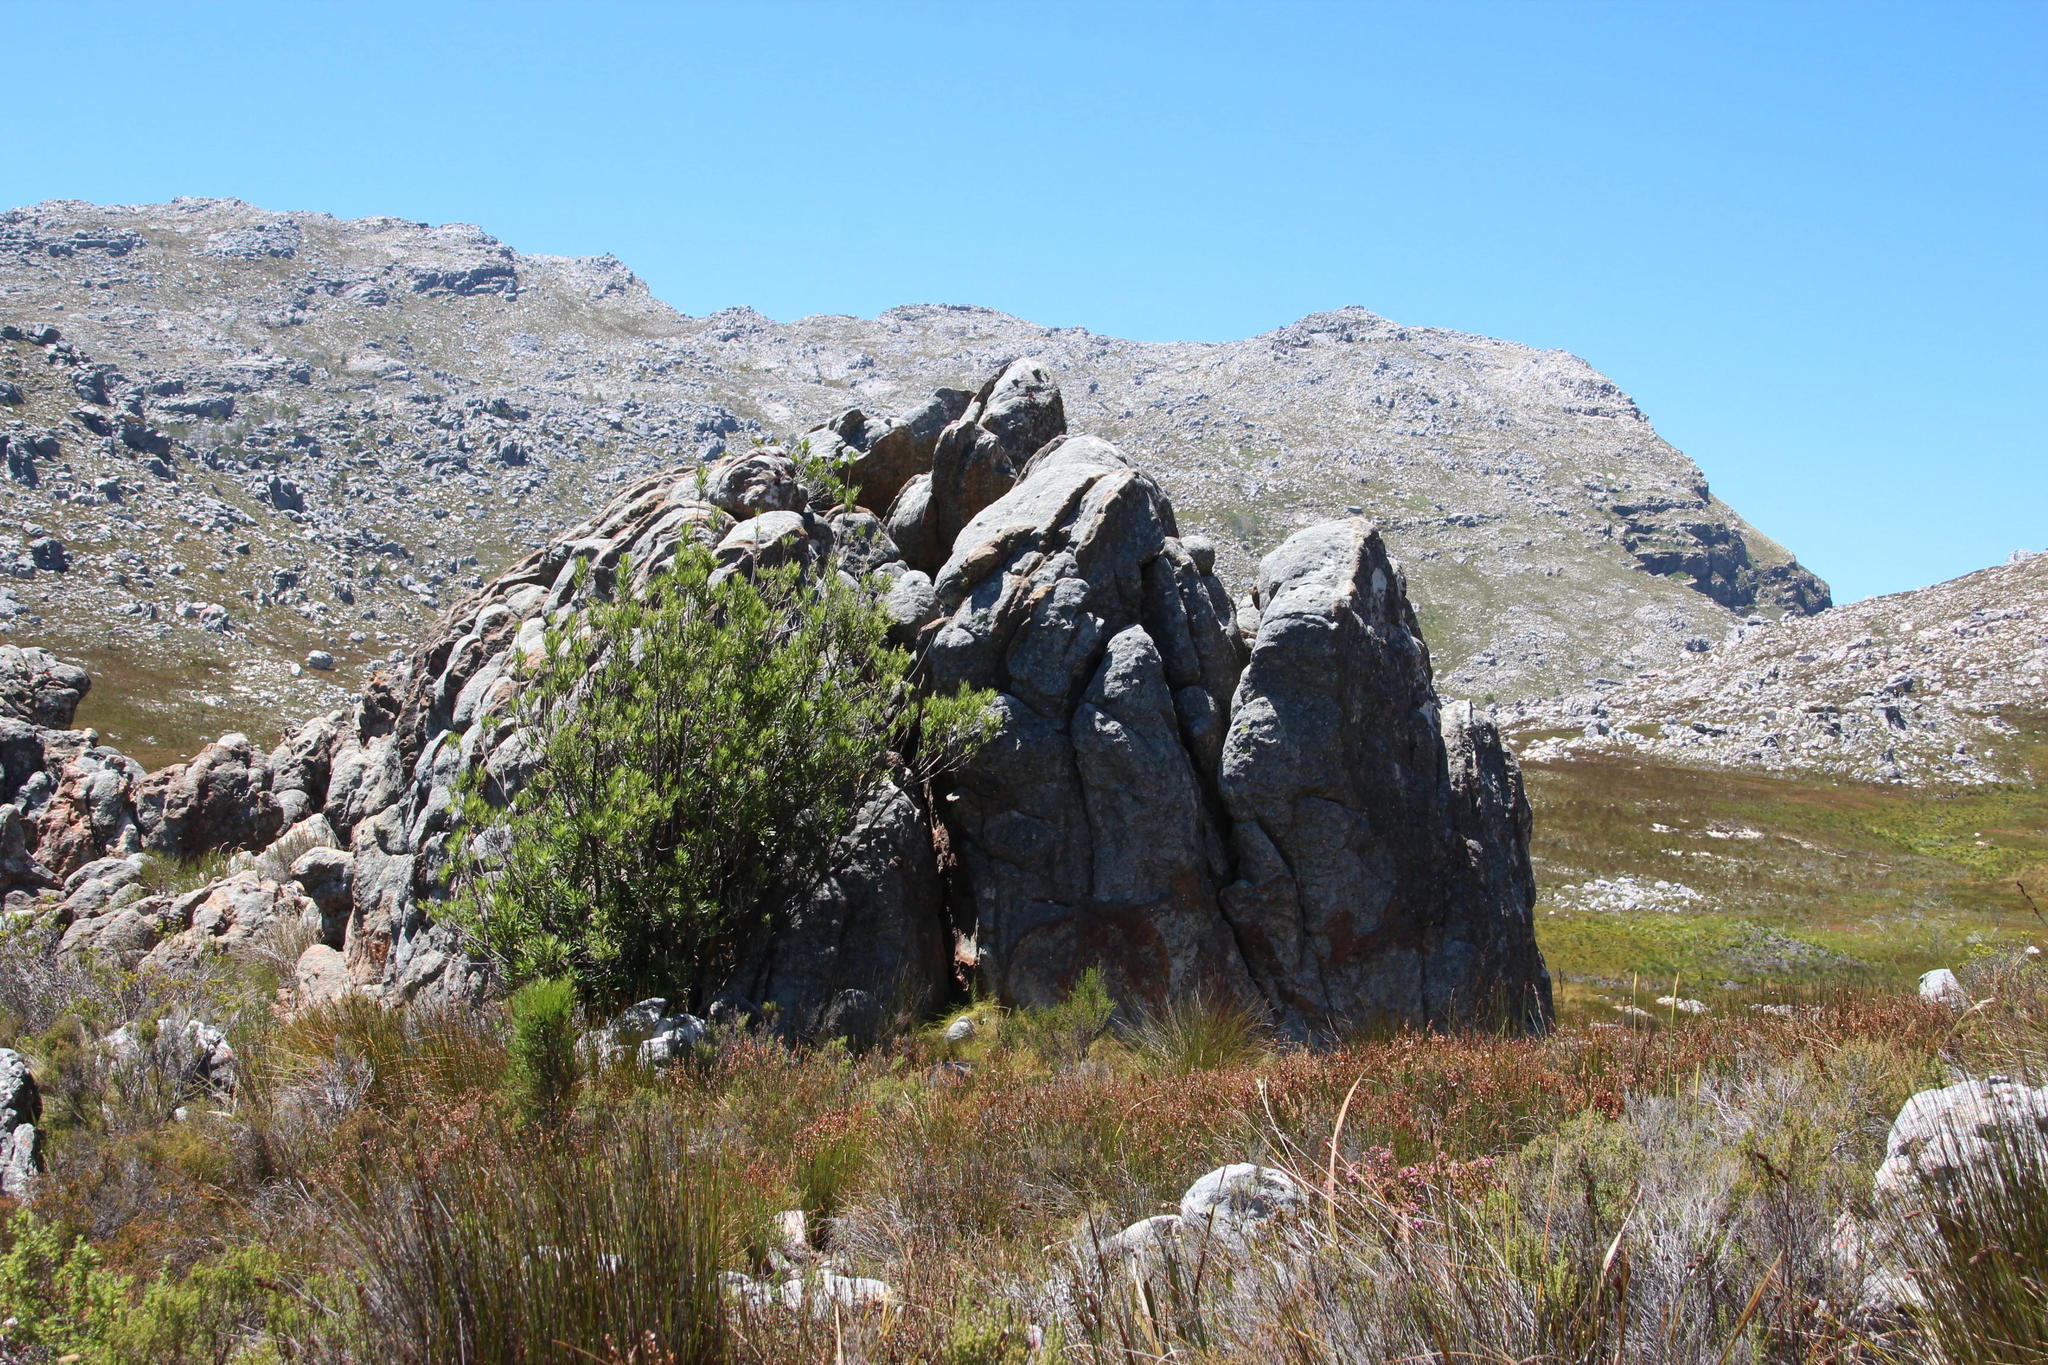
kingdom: Plantae
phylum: Tracheophyta
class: Magnoliopsida
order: Asterales
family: Asteraceae
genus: Brachylaena
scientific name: Brachylaena neriifolia
